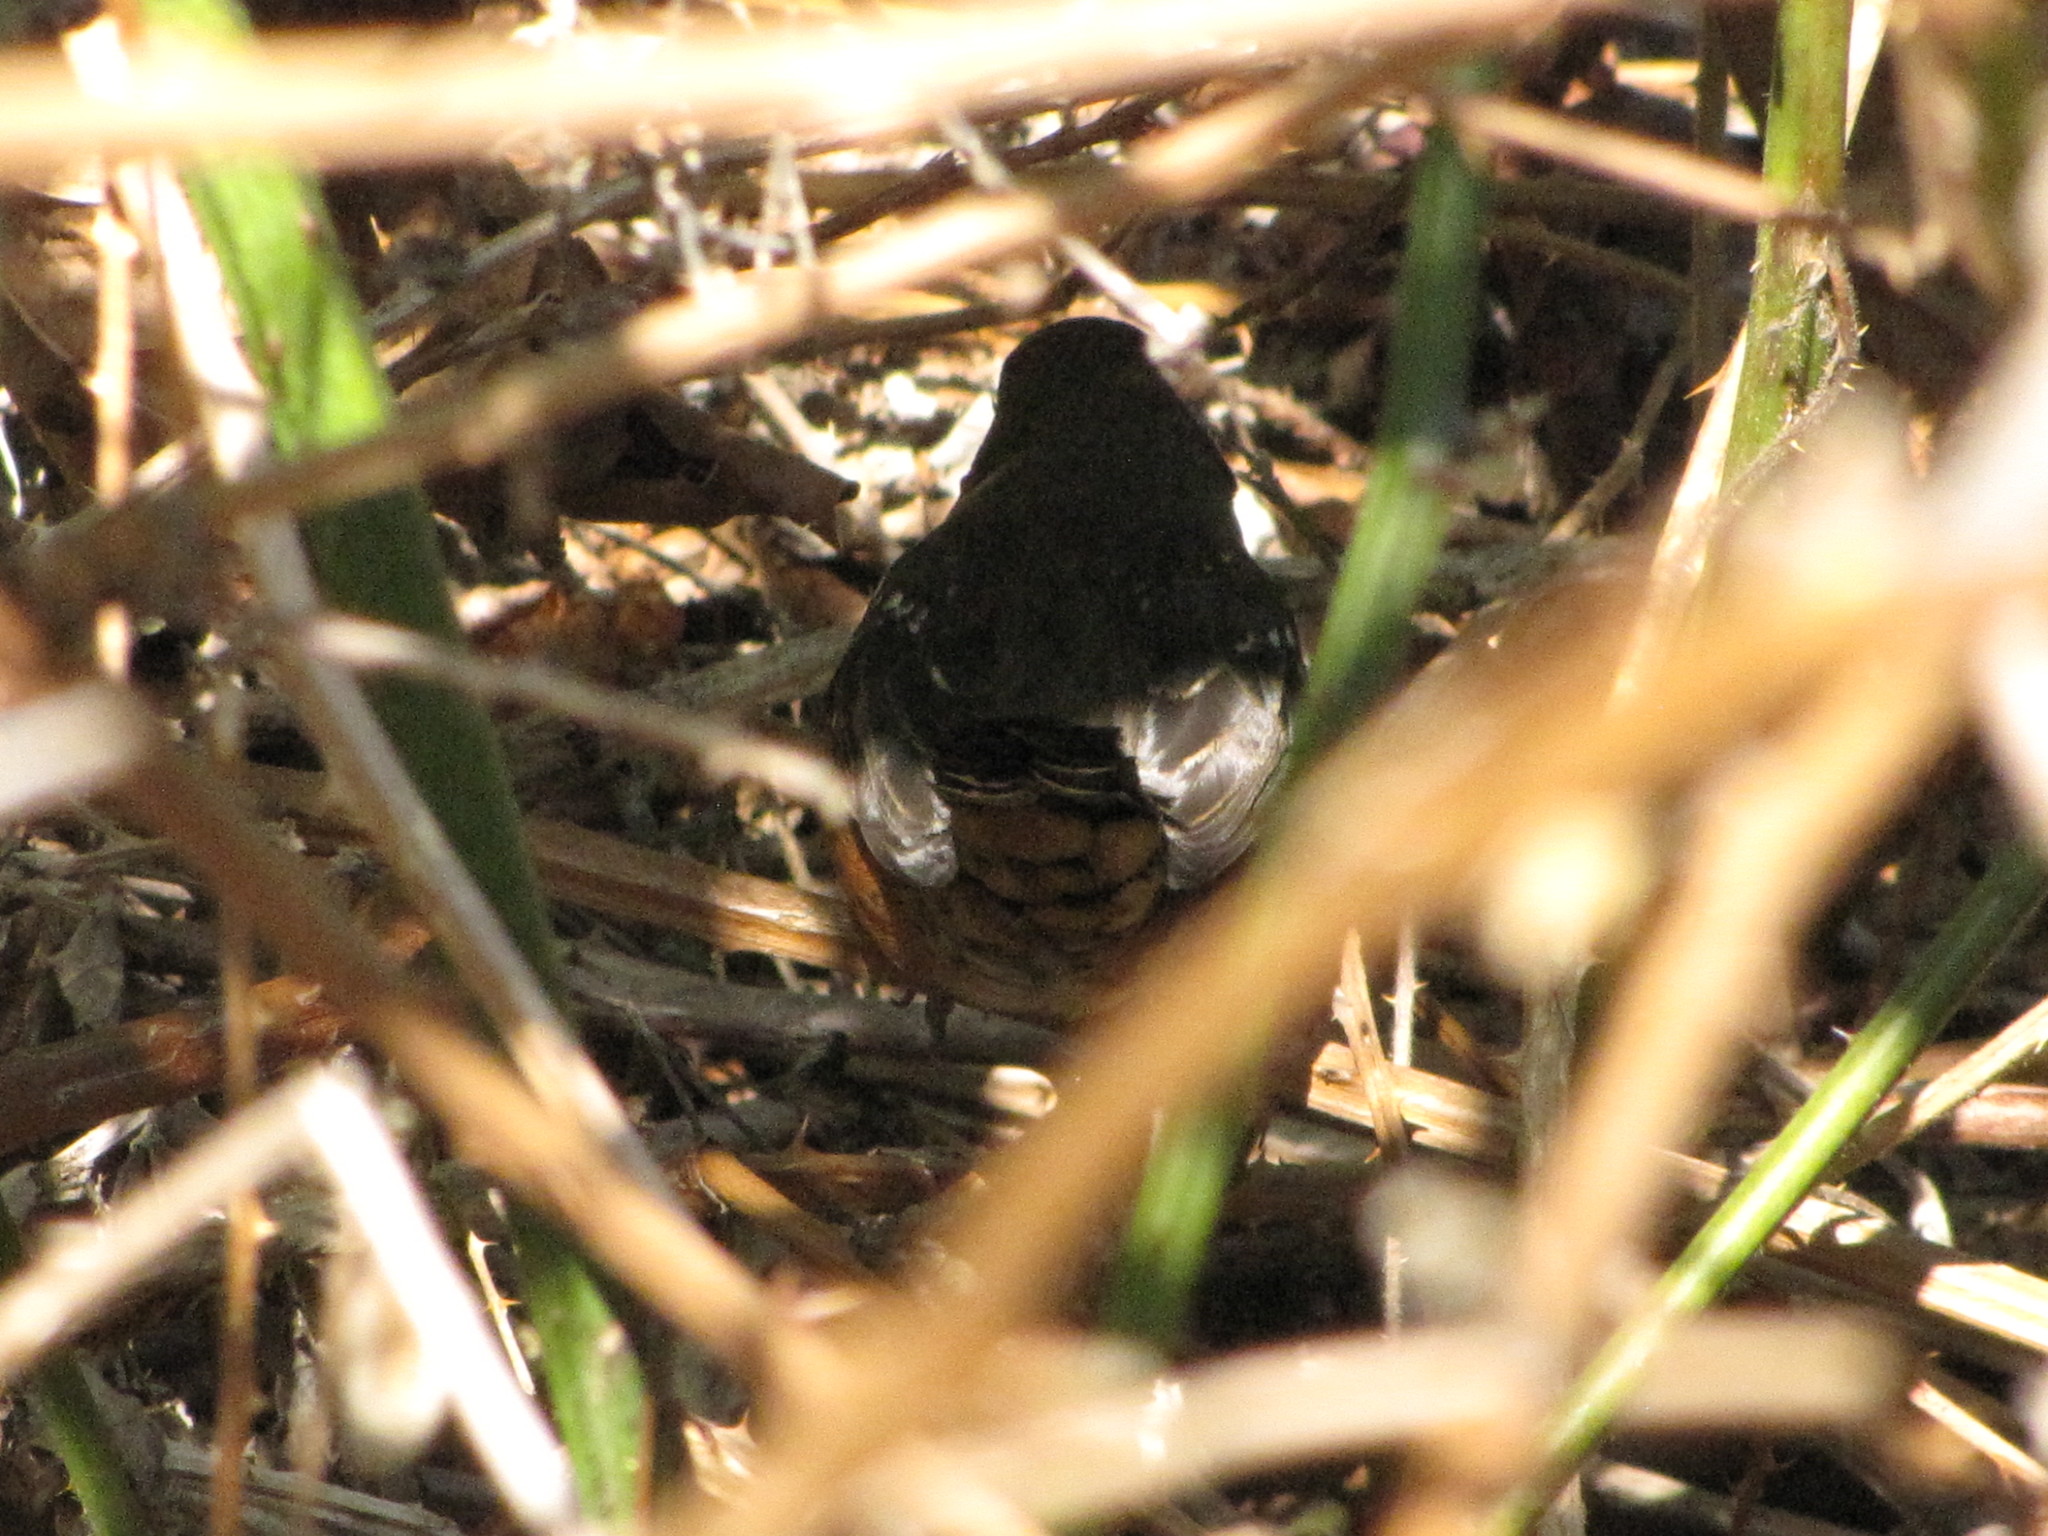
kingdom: Animalia
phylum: Chordata
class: Aves
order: Passeriformes
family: Passerellidae
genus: Pipilo
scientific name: Pipilo maculatus
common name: Spotted towhee
